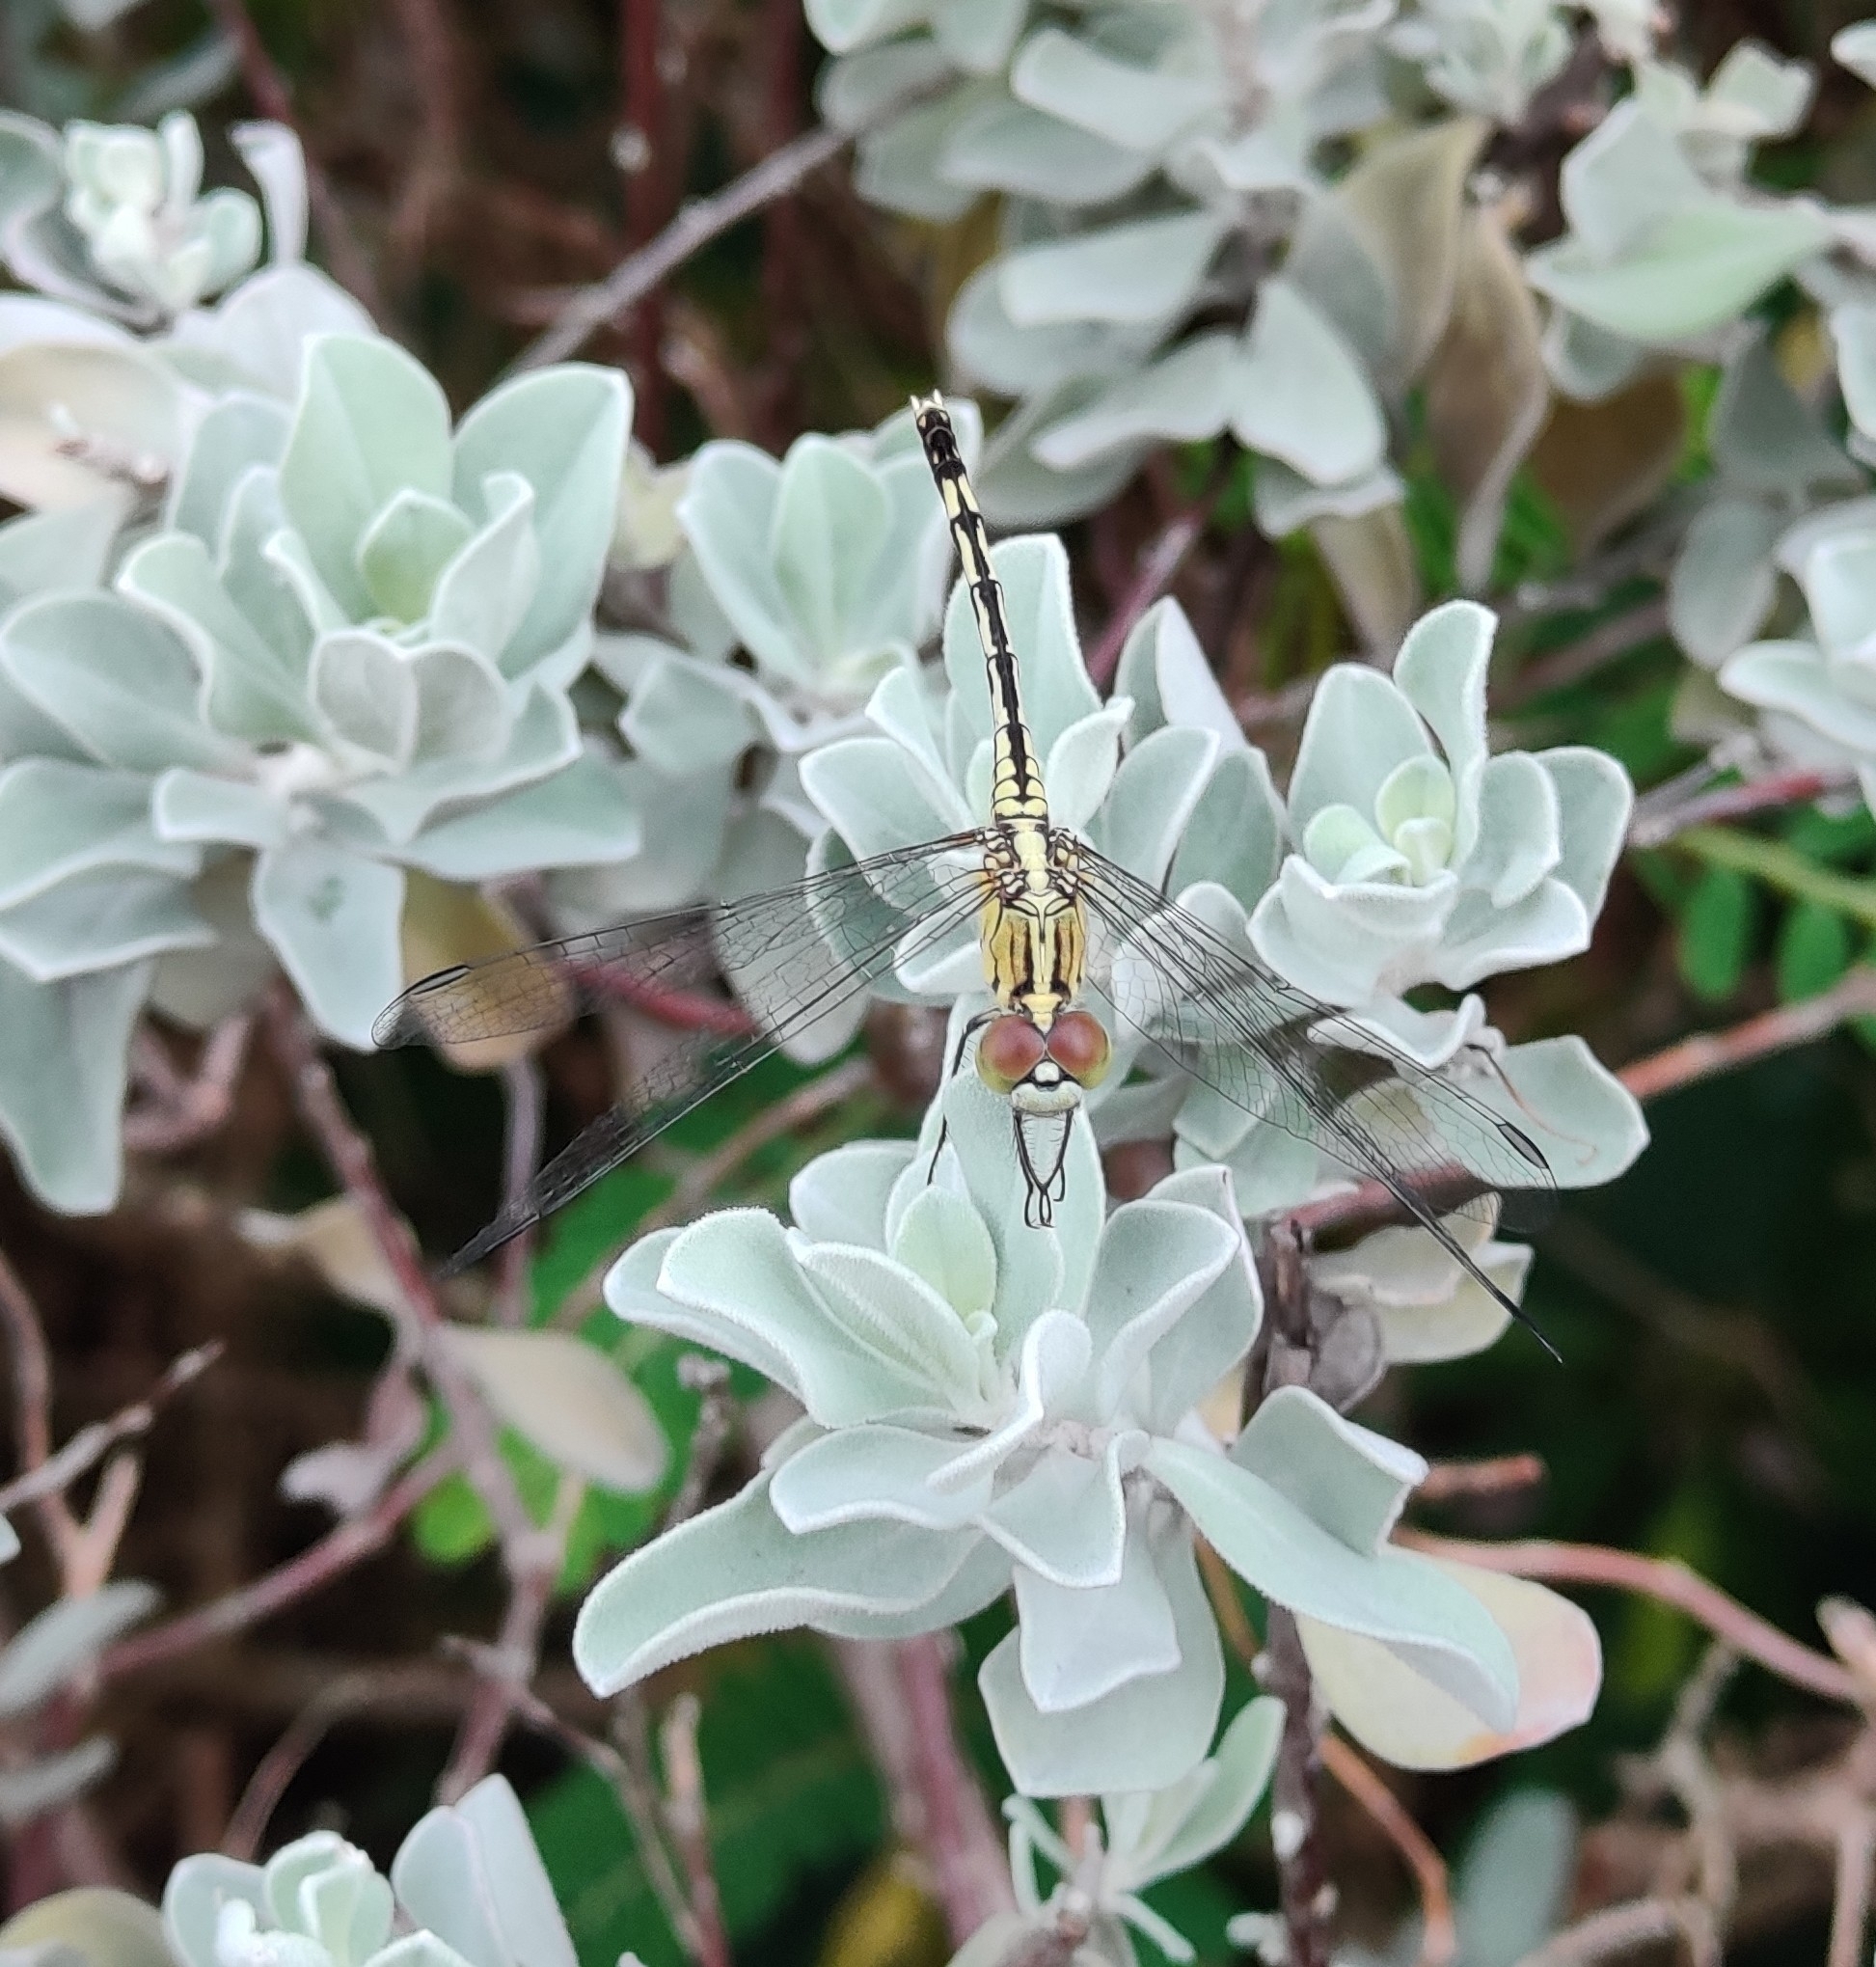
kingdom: Animalia
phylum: Arthropoda
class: Insecta
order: Odonata
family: Libellulidae
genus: Diplacodes
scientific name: Diplacodes trivialis
